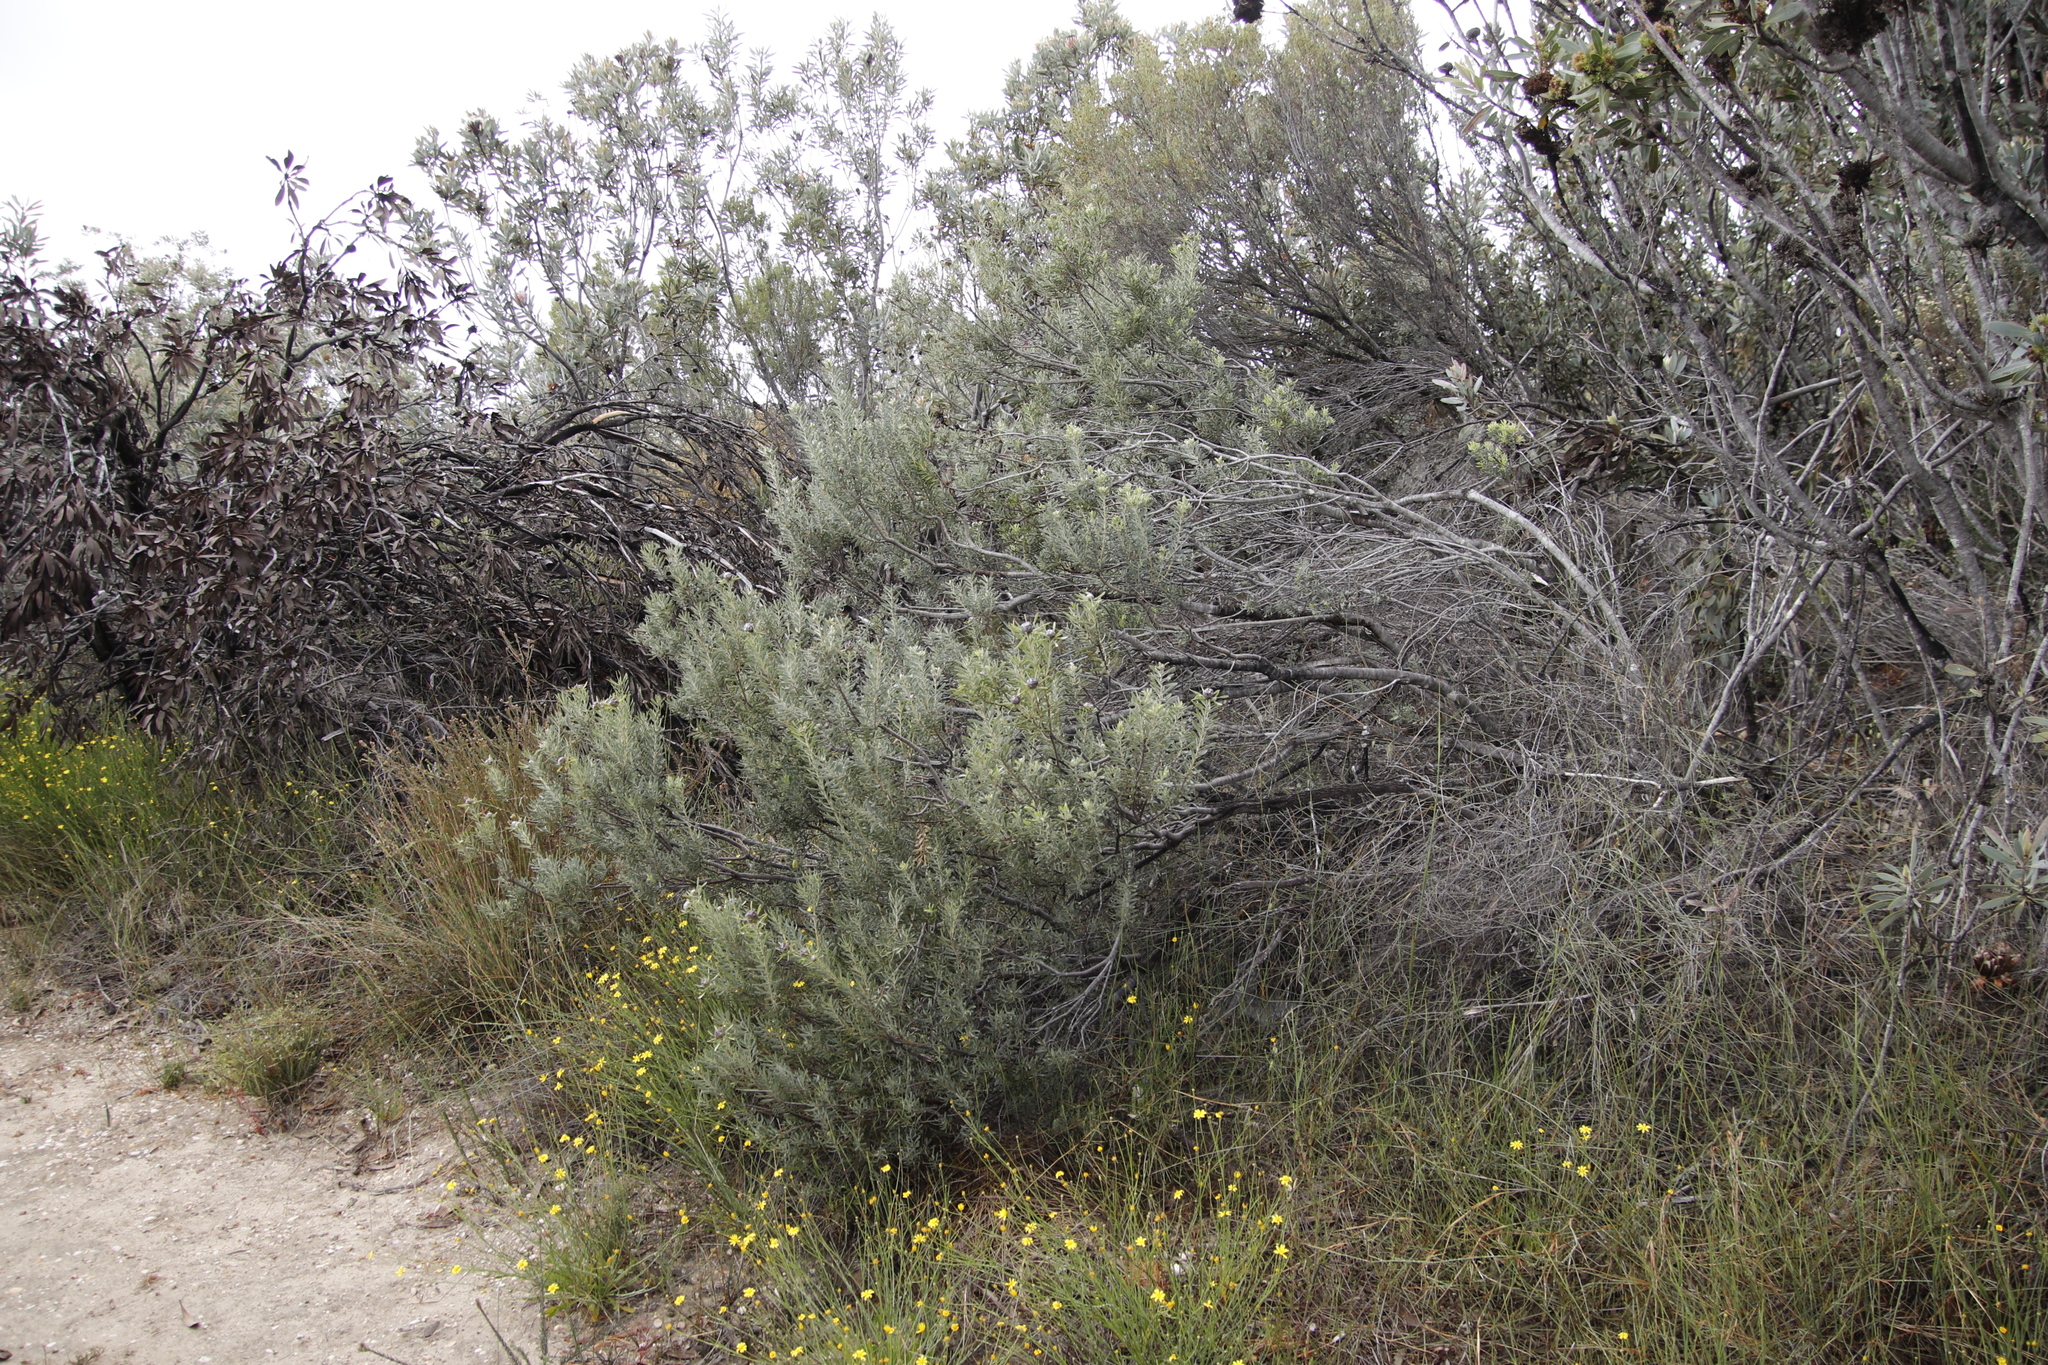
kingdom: Plantae
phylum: Tracheophyta
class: Magnoliopsida
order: Proteales
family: Proteaceae
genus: Leucadendron
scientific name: Leucadendron pubescens
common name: Grey conebush
